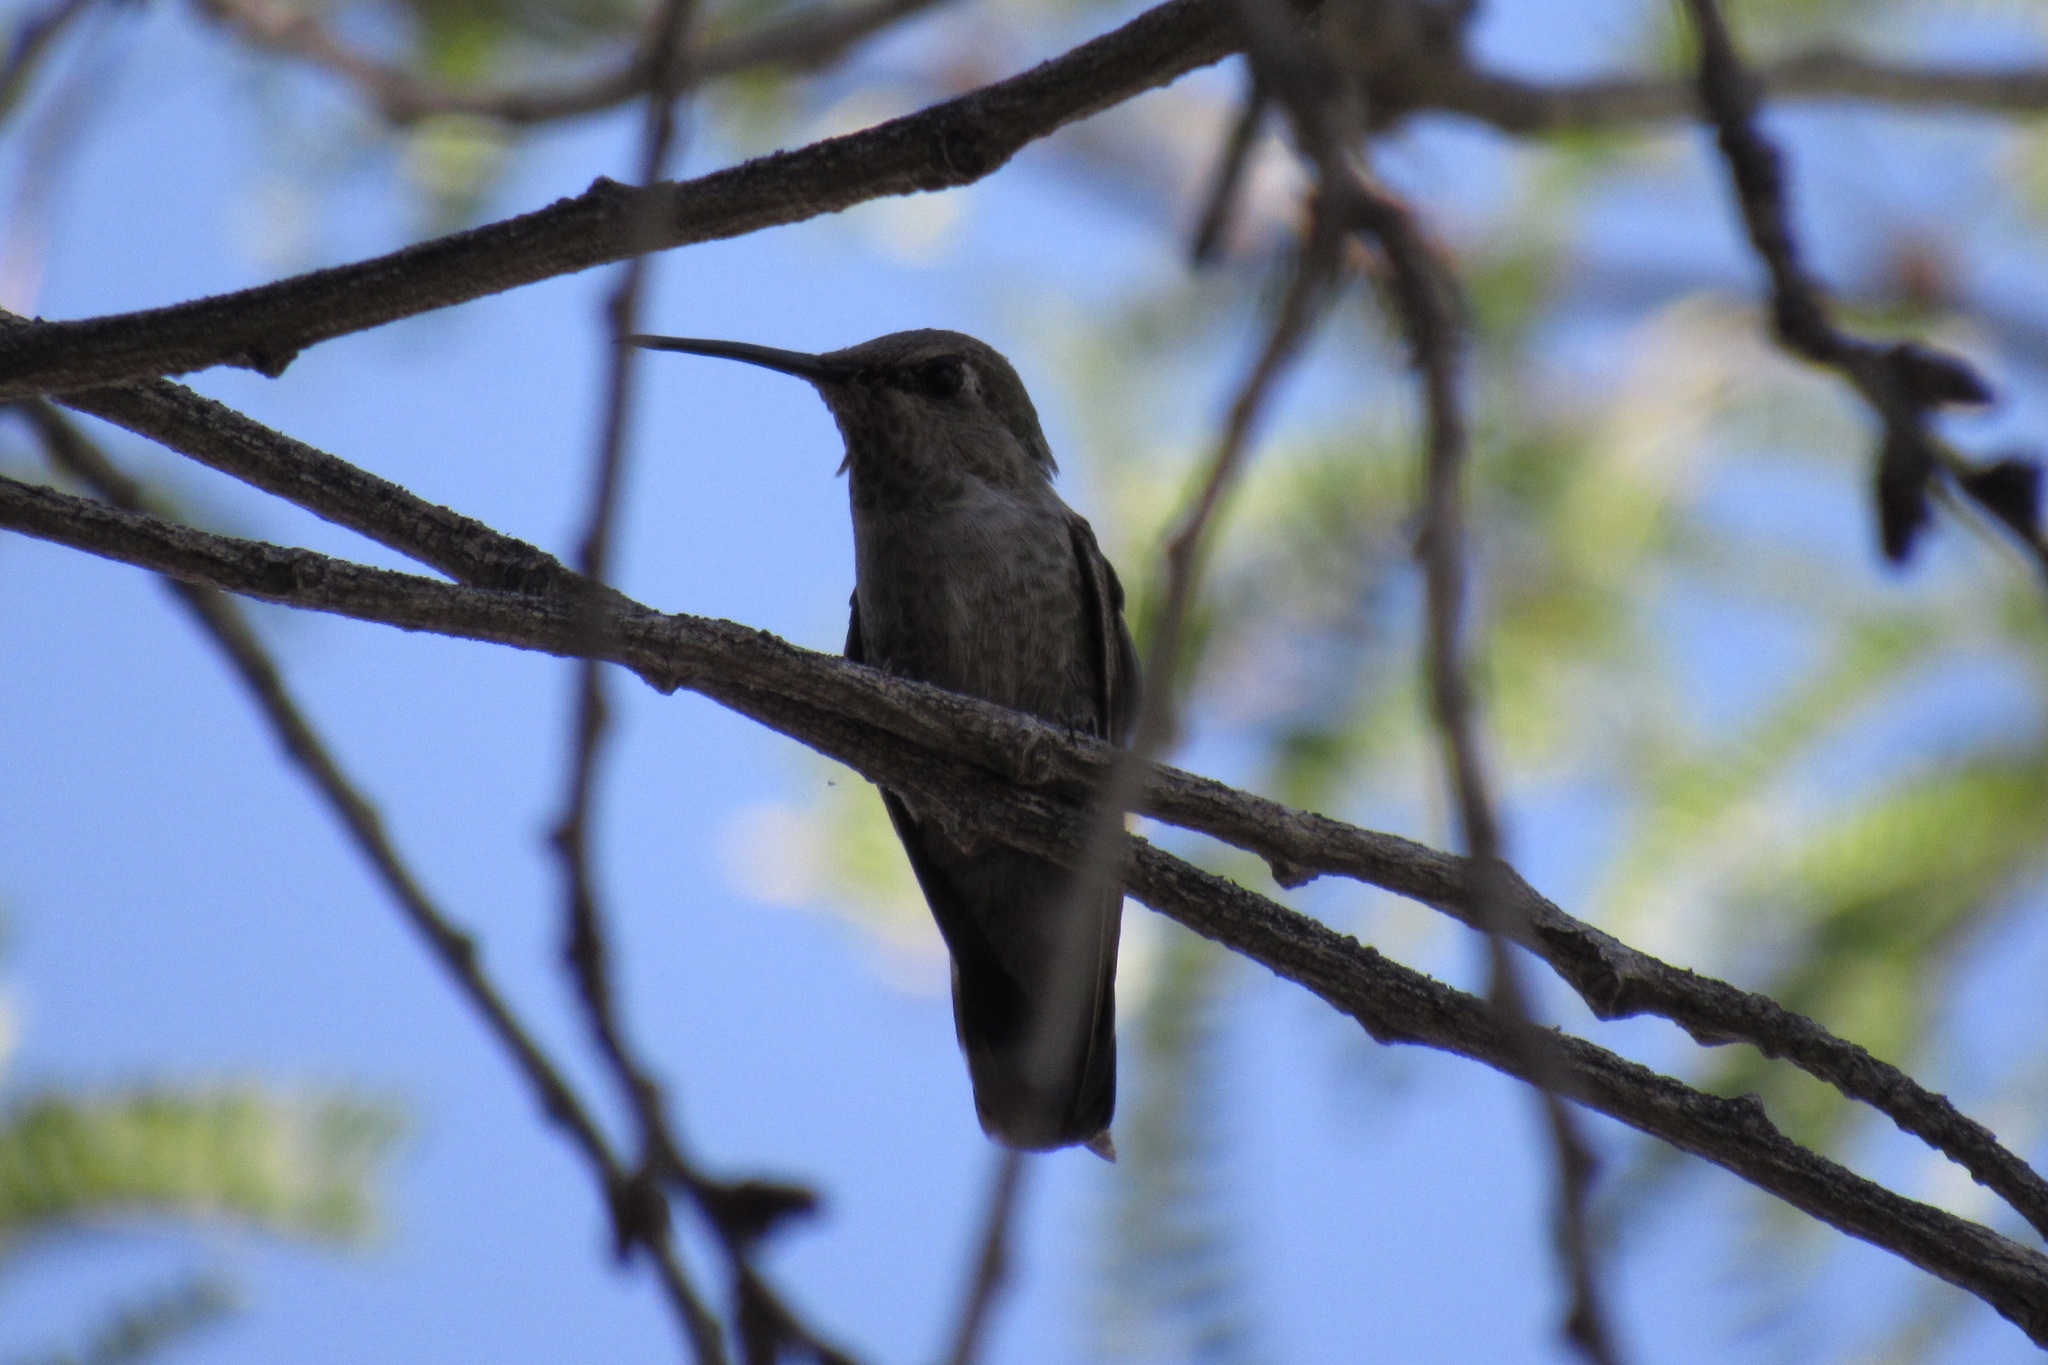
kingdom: Animalia
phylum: Chordata
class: Aves
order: Apodiformes
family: Trochilidae
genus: Calypte
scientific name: Calypte anna
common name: Anna's hummingbird
